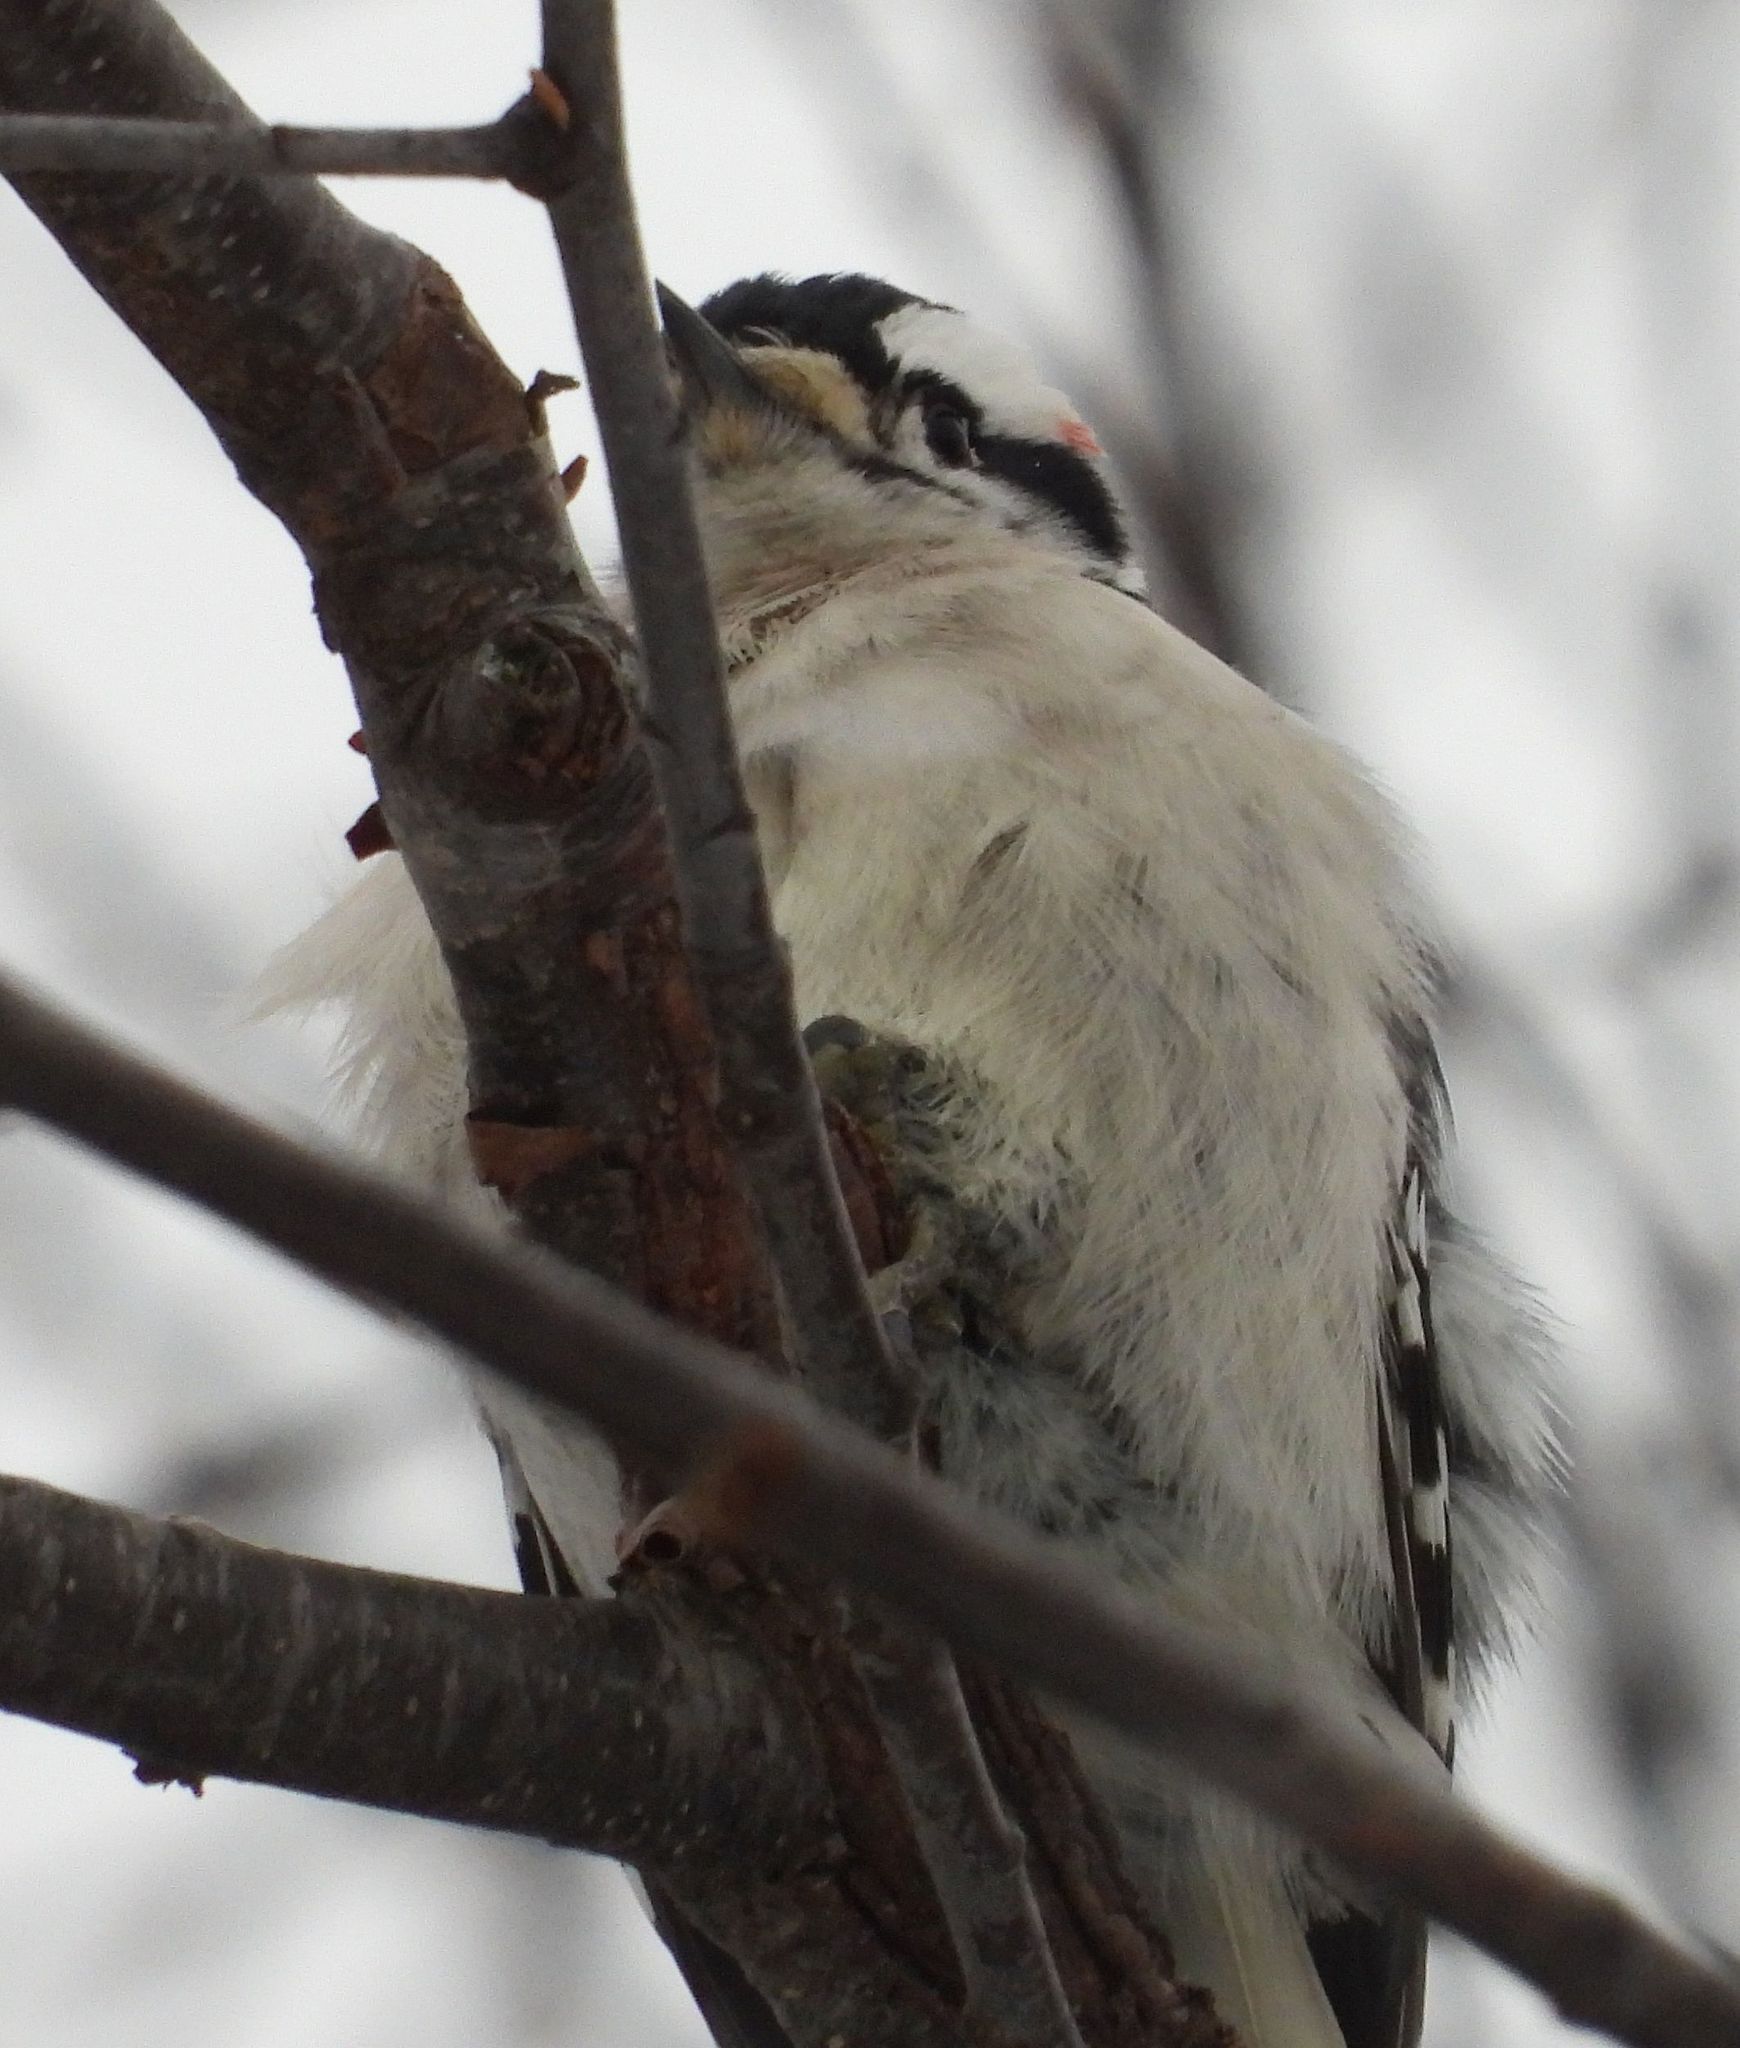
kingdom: Animalia
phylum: Chordata
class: Aves
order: Piciformes
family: Picidae
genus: Dryobates
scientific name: Dryobates pubescens
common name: Downy woodpecker
